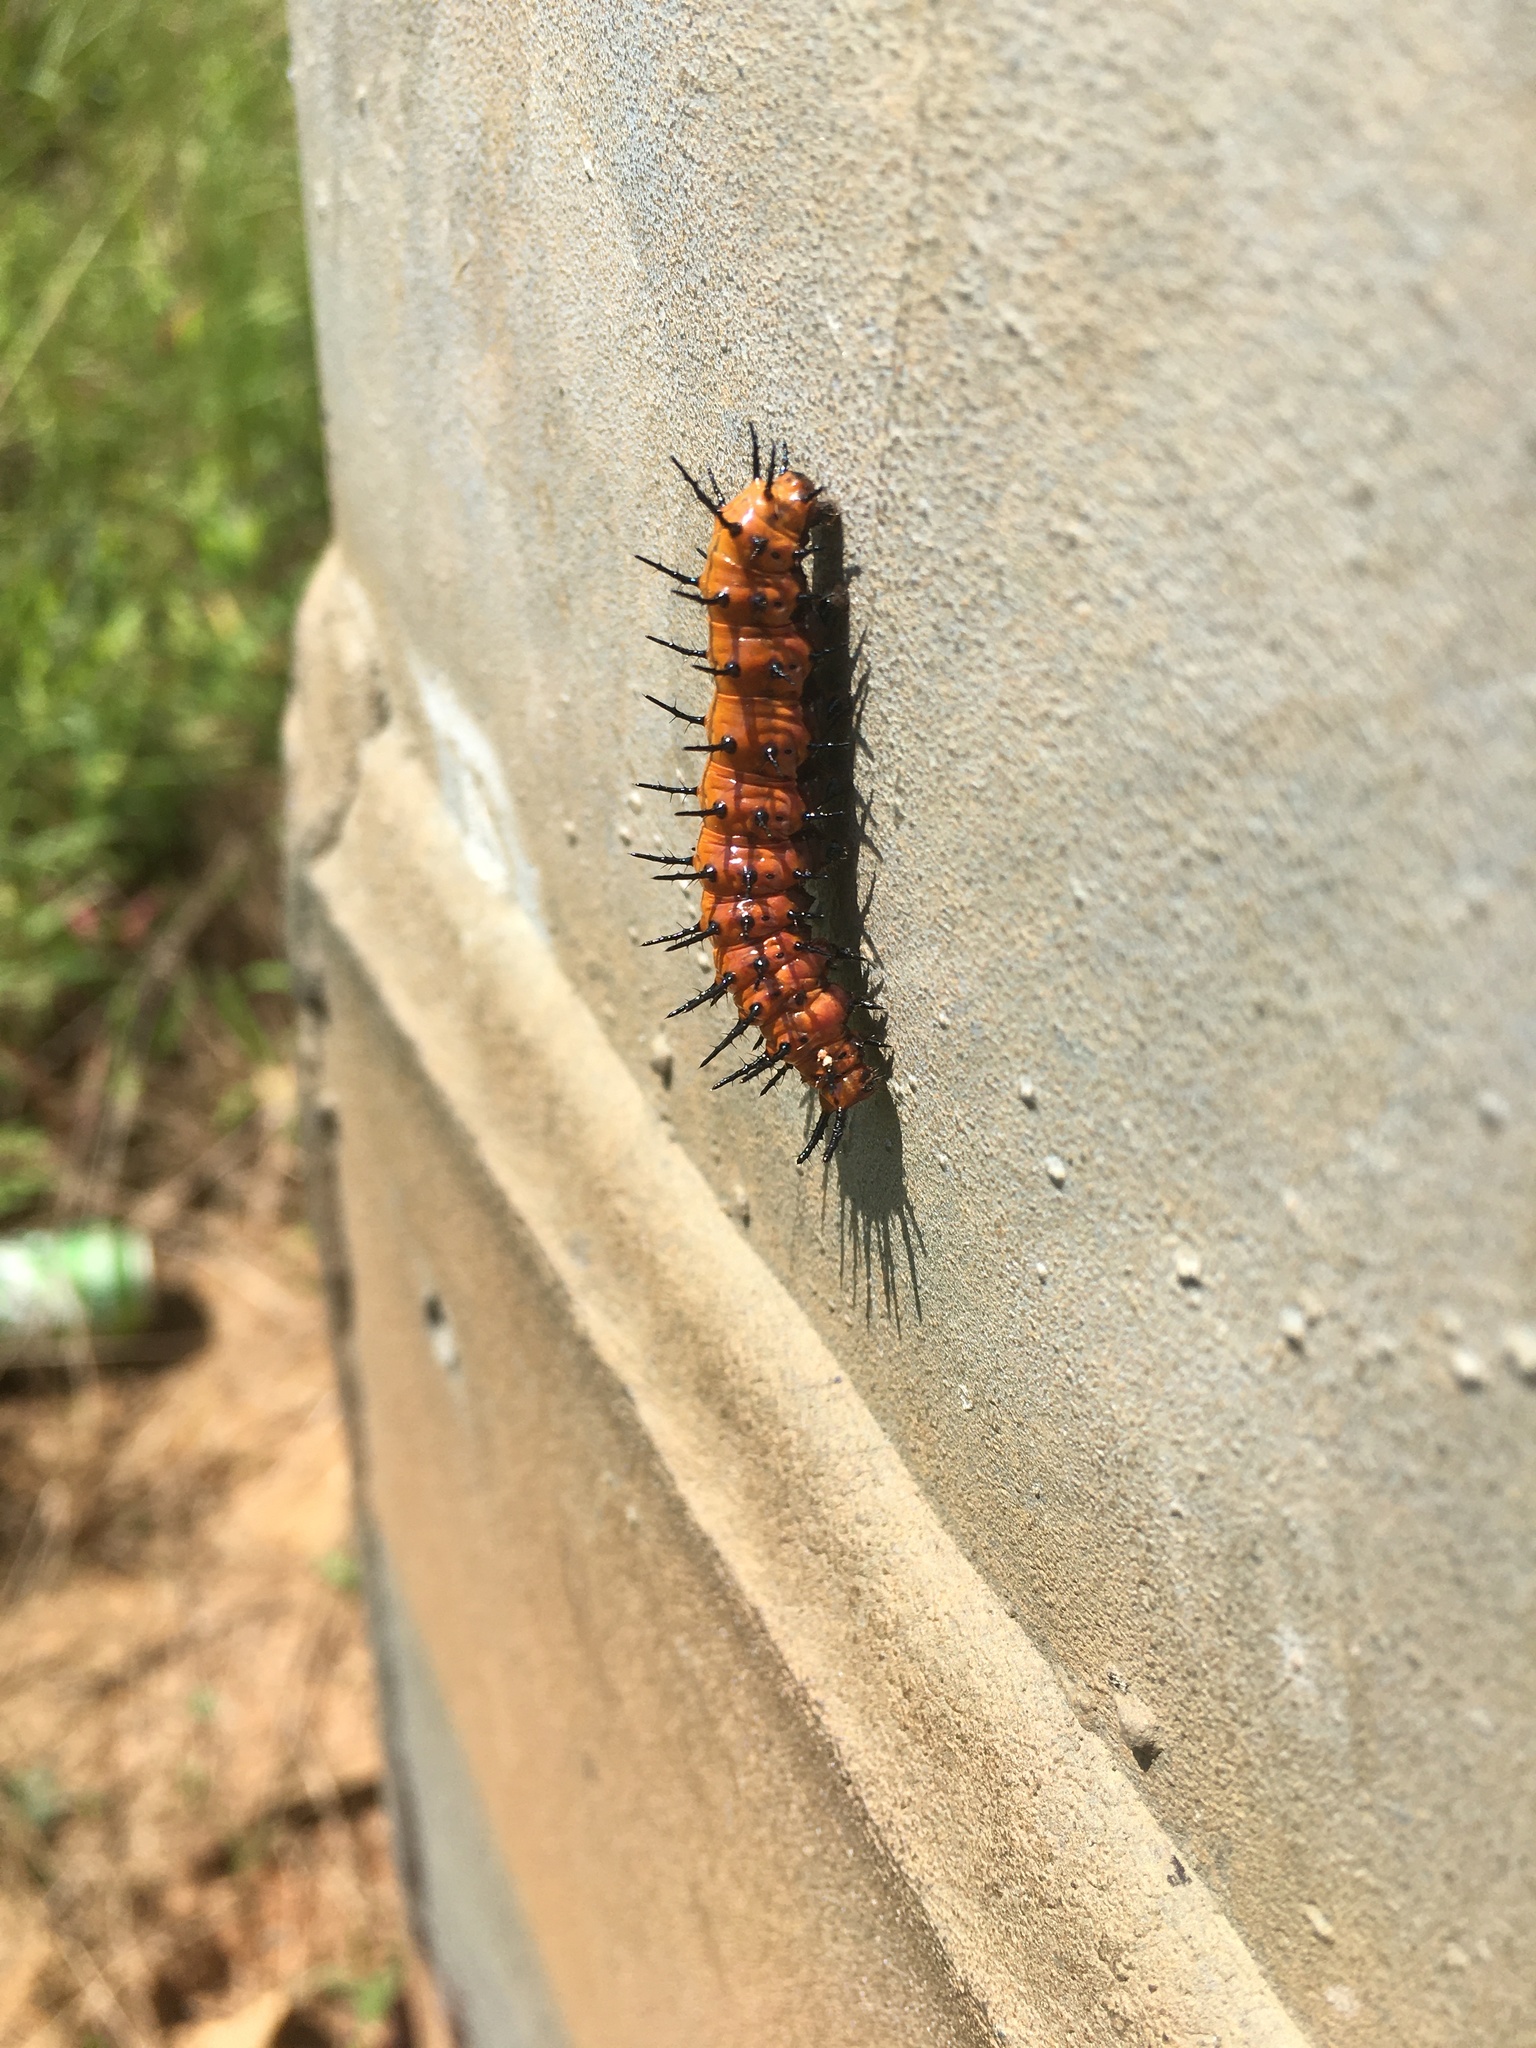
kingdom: Animalia
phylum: Arthropoda
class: Insecta
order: Lepidoptera
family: Nymphalidae
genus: Dione
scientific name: Dione vanillae
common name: Gulf fritillary
